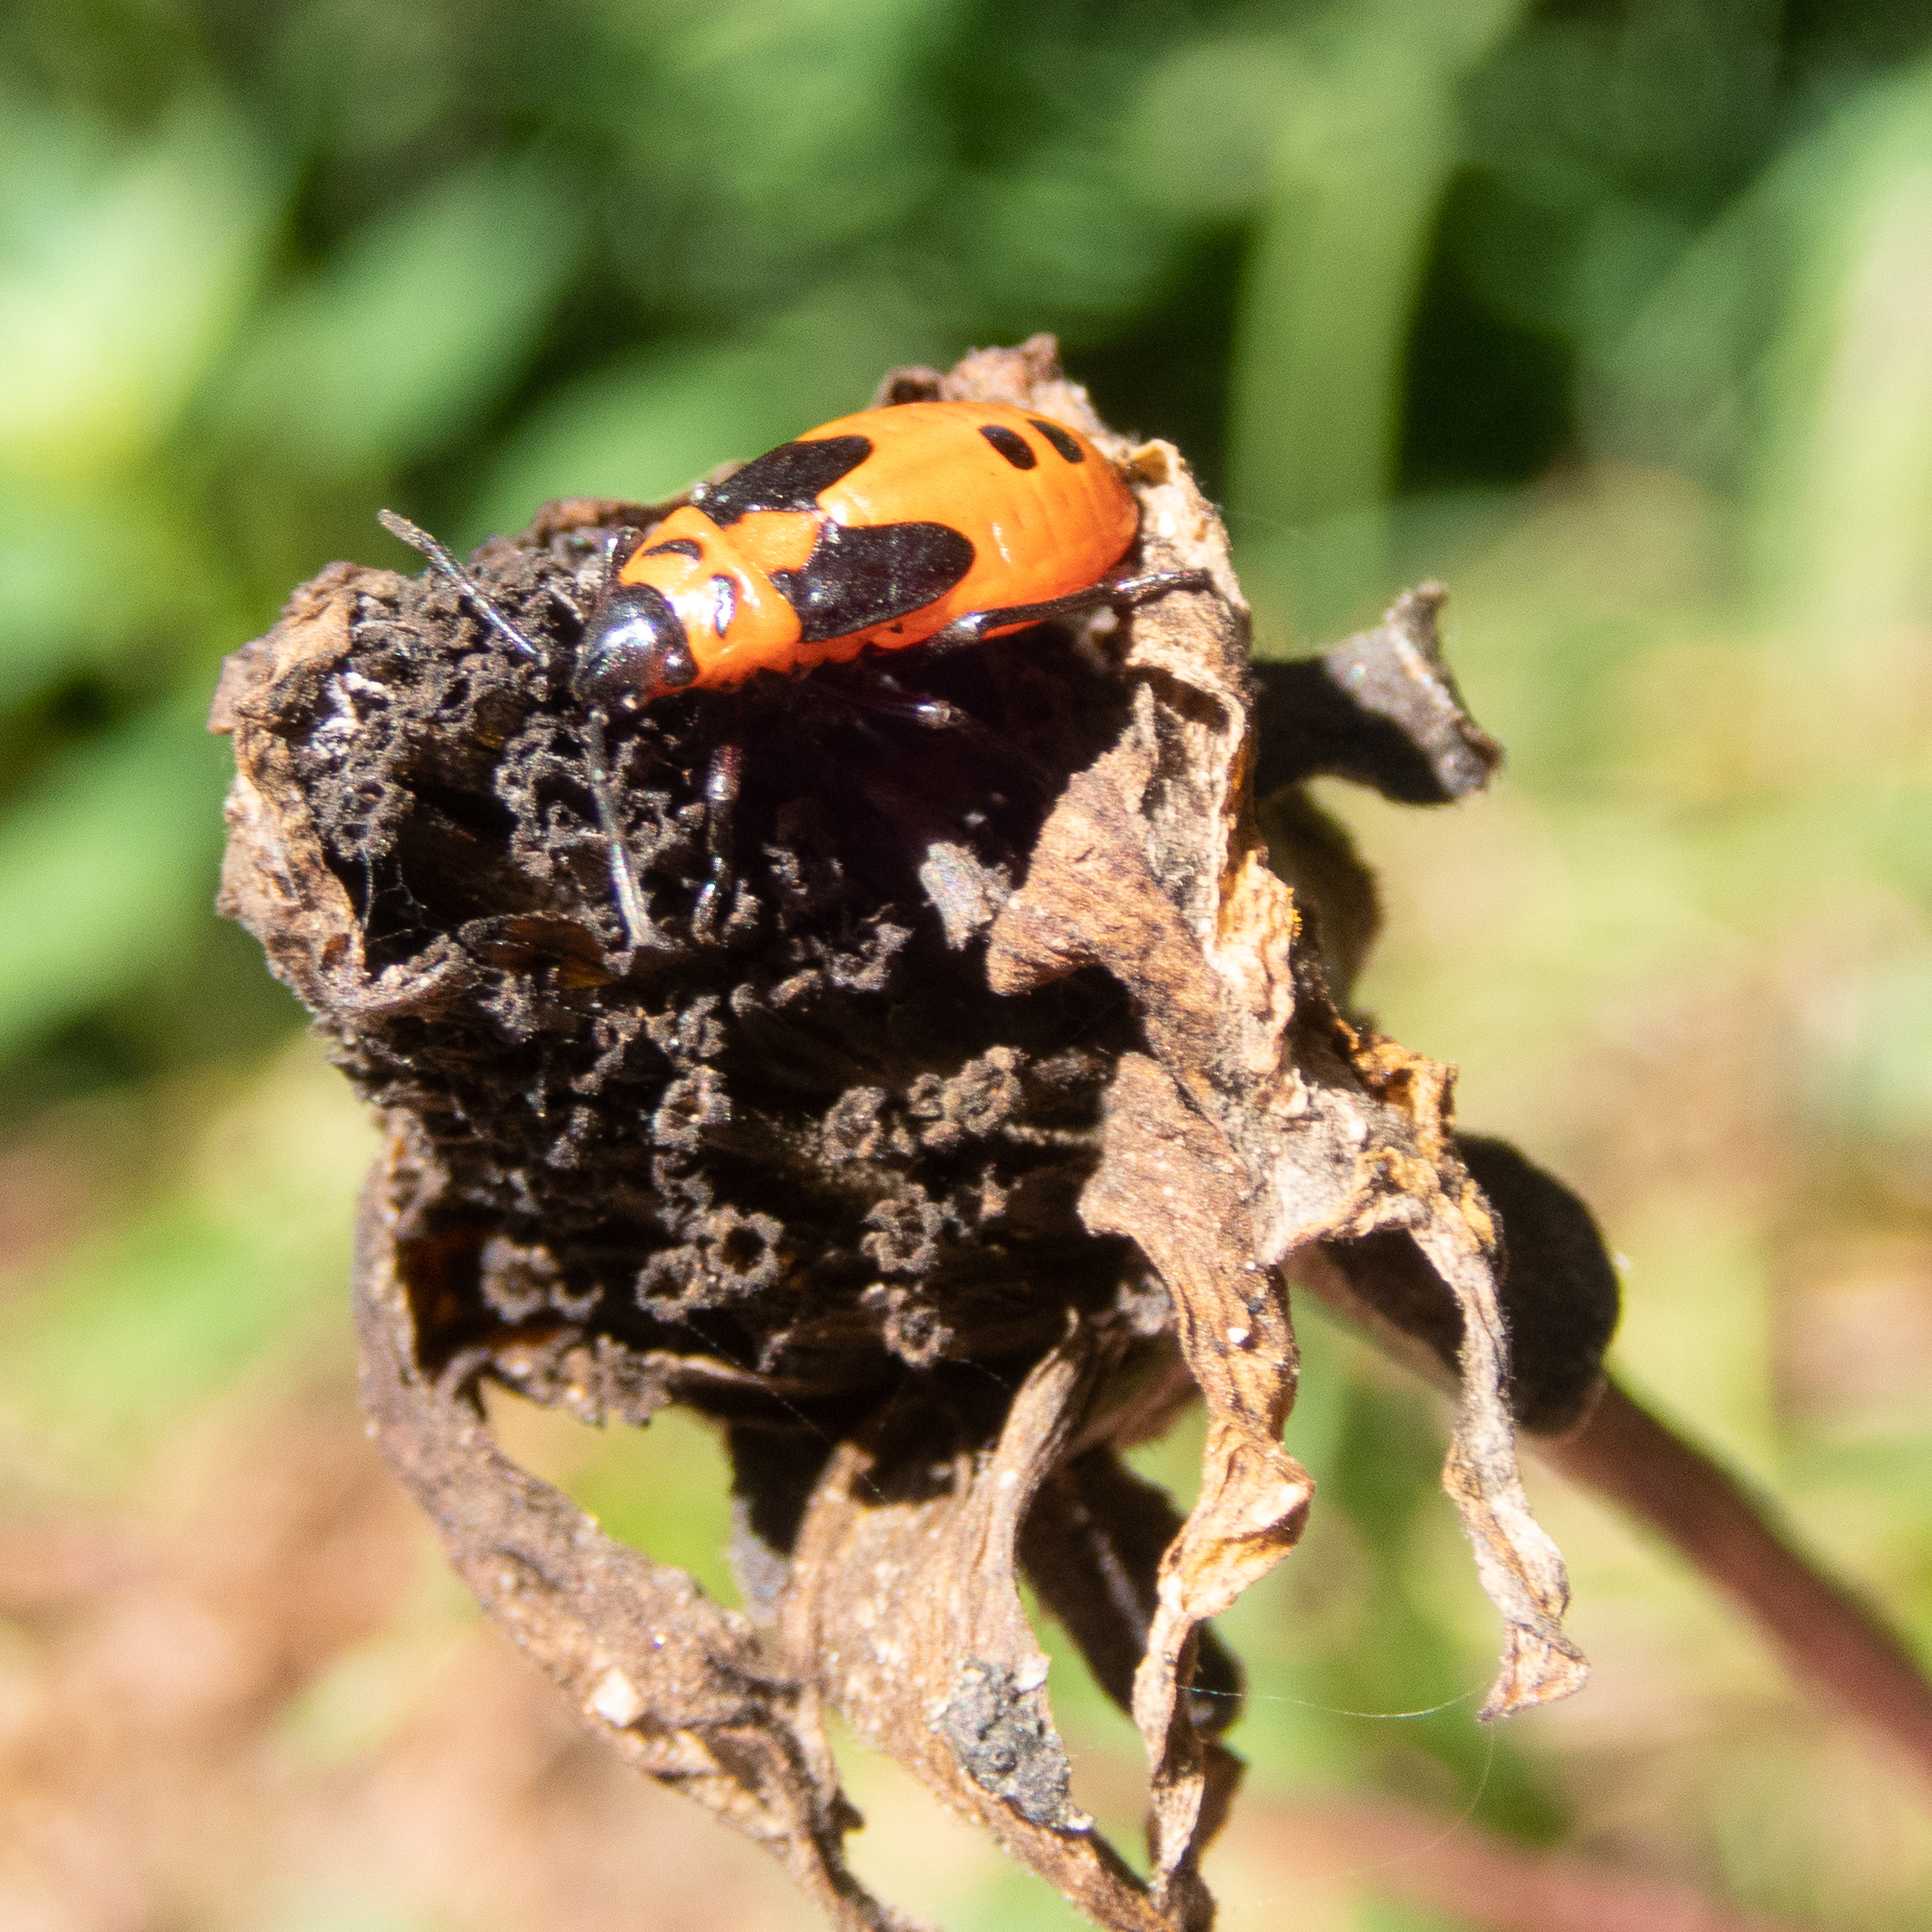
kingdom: Animalia
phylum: Arthropoda
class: Insecta
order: Hemiptera
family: Lygaeidae
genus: Lygaeus
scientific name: Lygaeus turcicus
